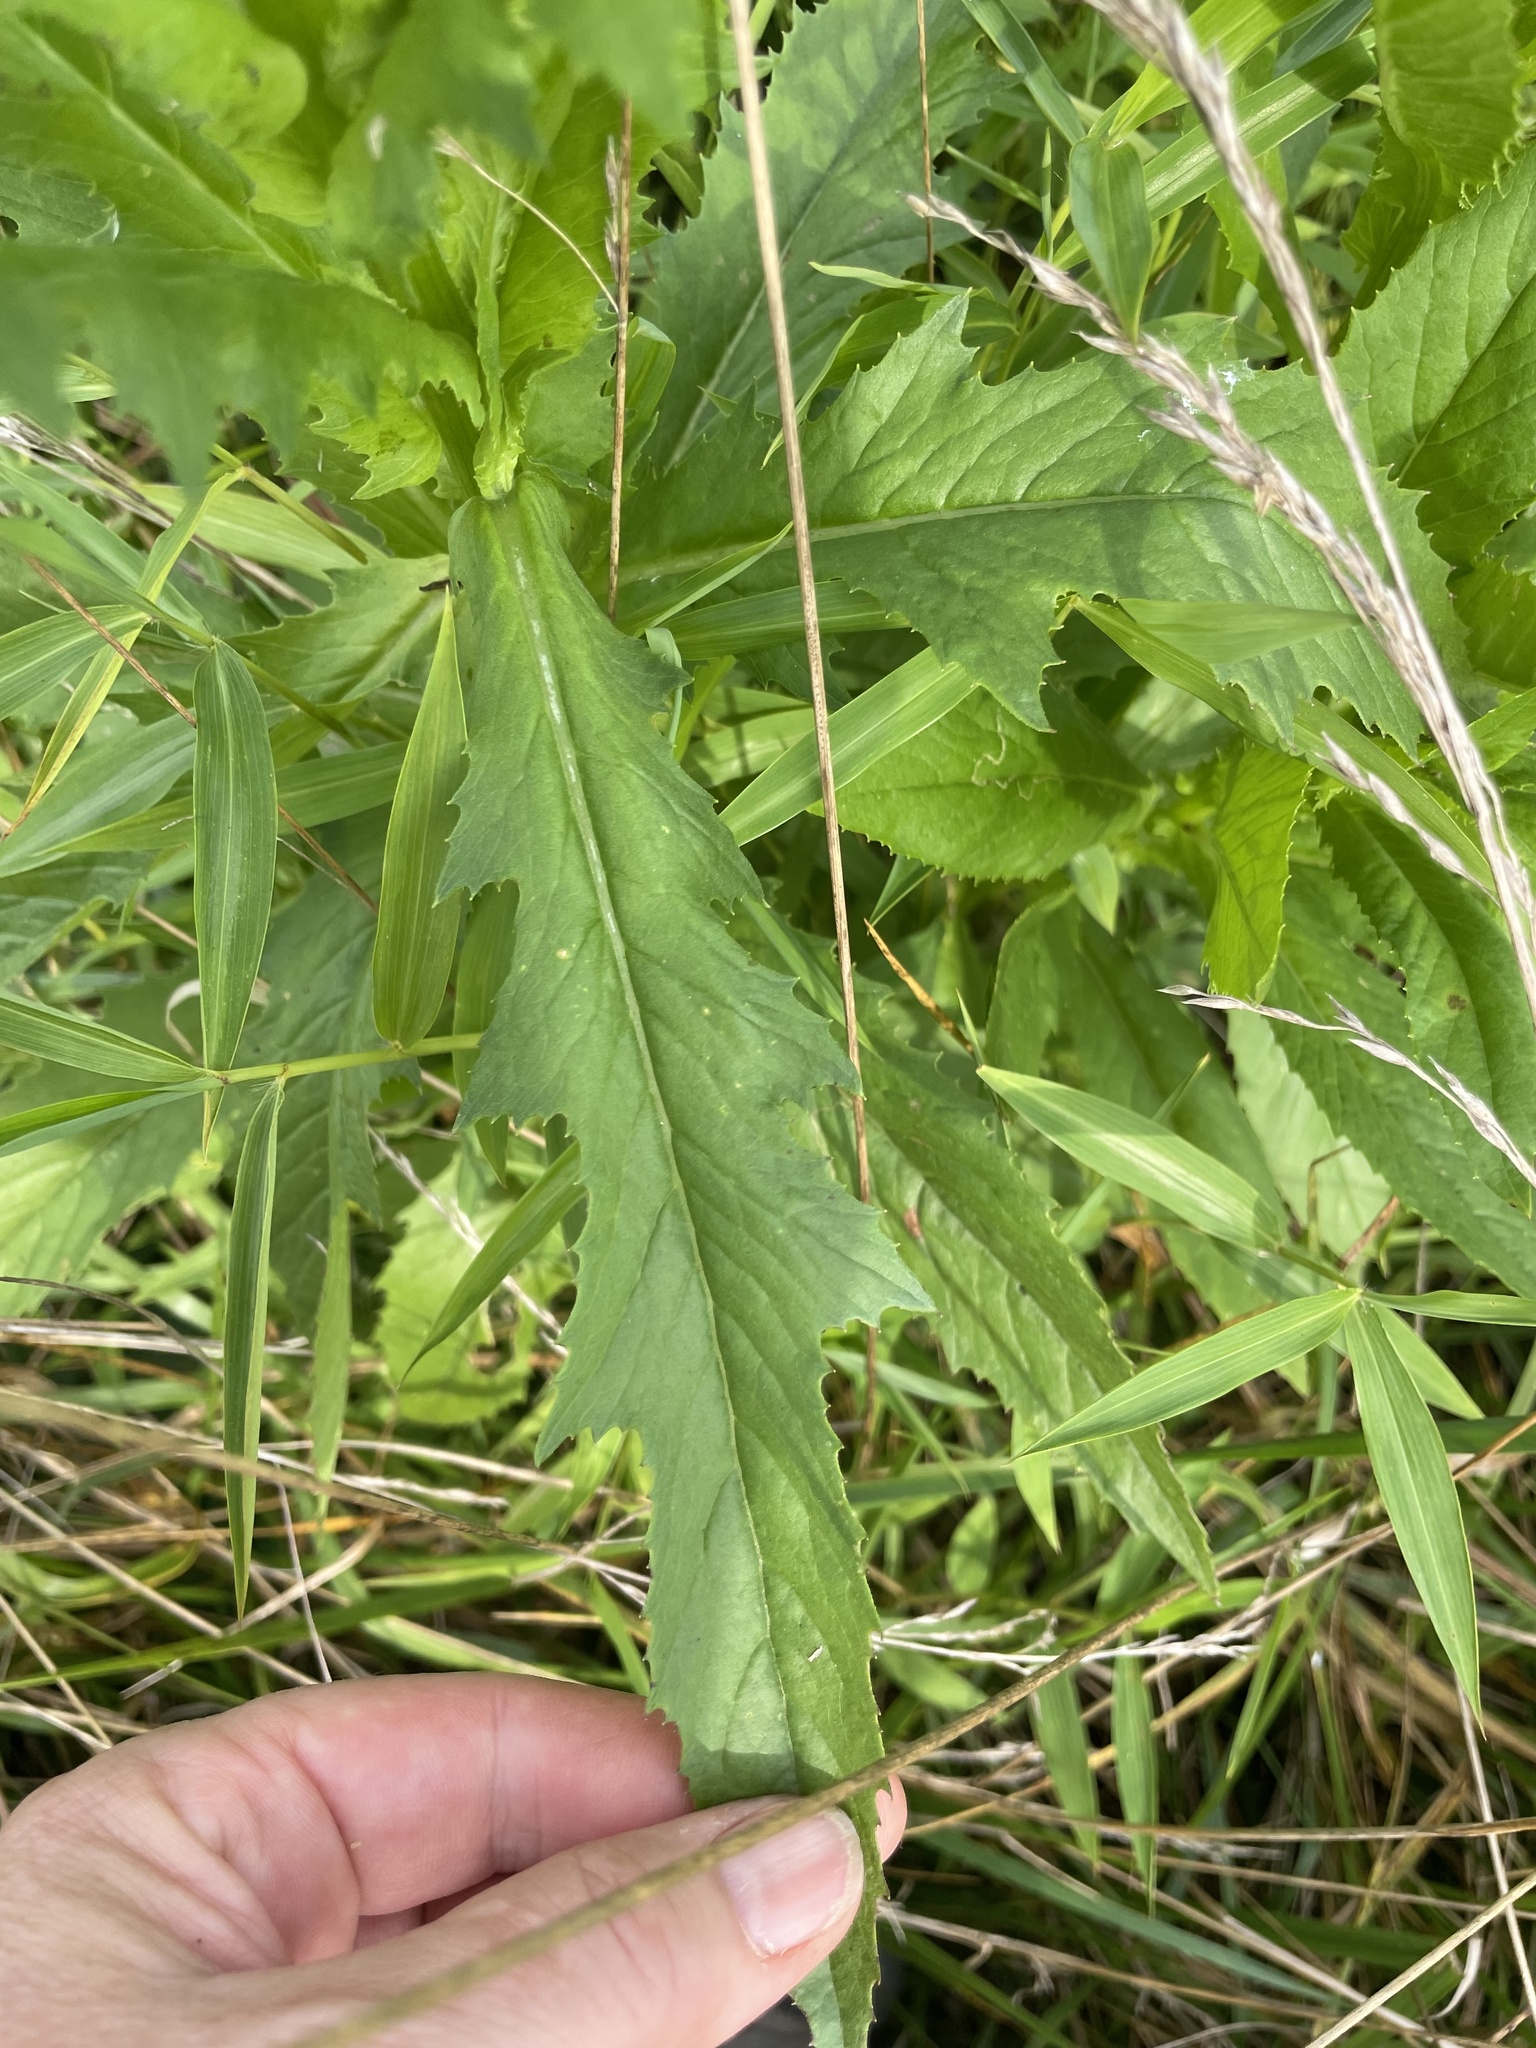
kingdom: Plantae
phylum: Tracheophyta
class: Magnoliopsida
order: Asterales
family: Asteraceae
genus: Erechtites
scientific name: Erechtites hieraciifolius
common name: American burnweed
